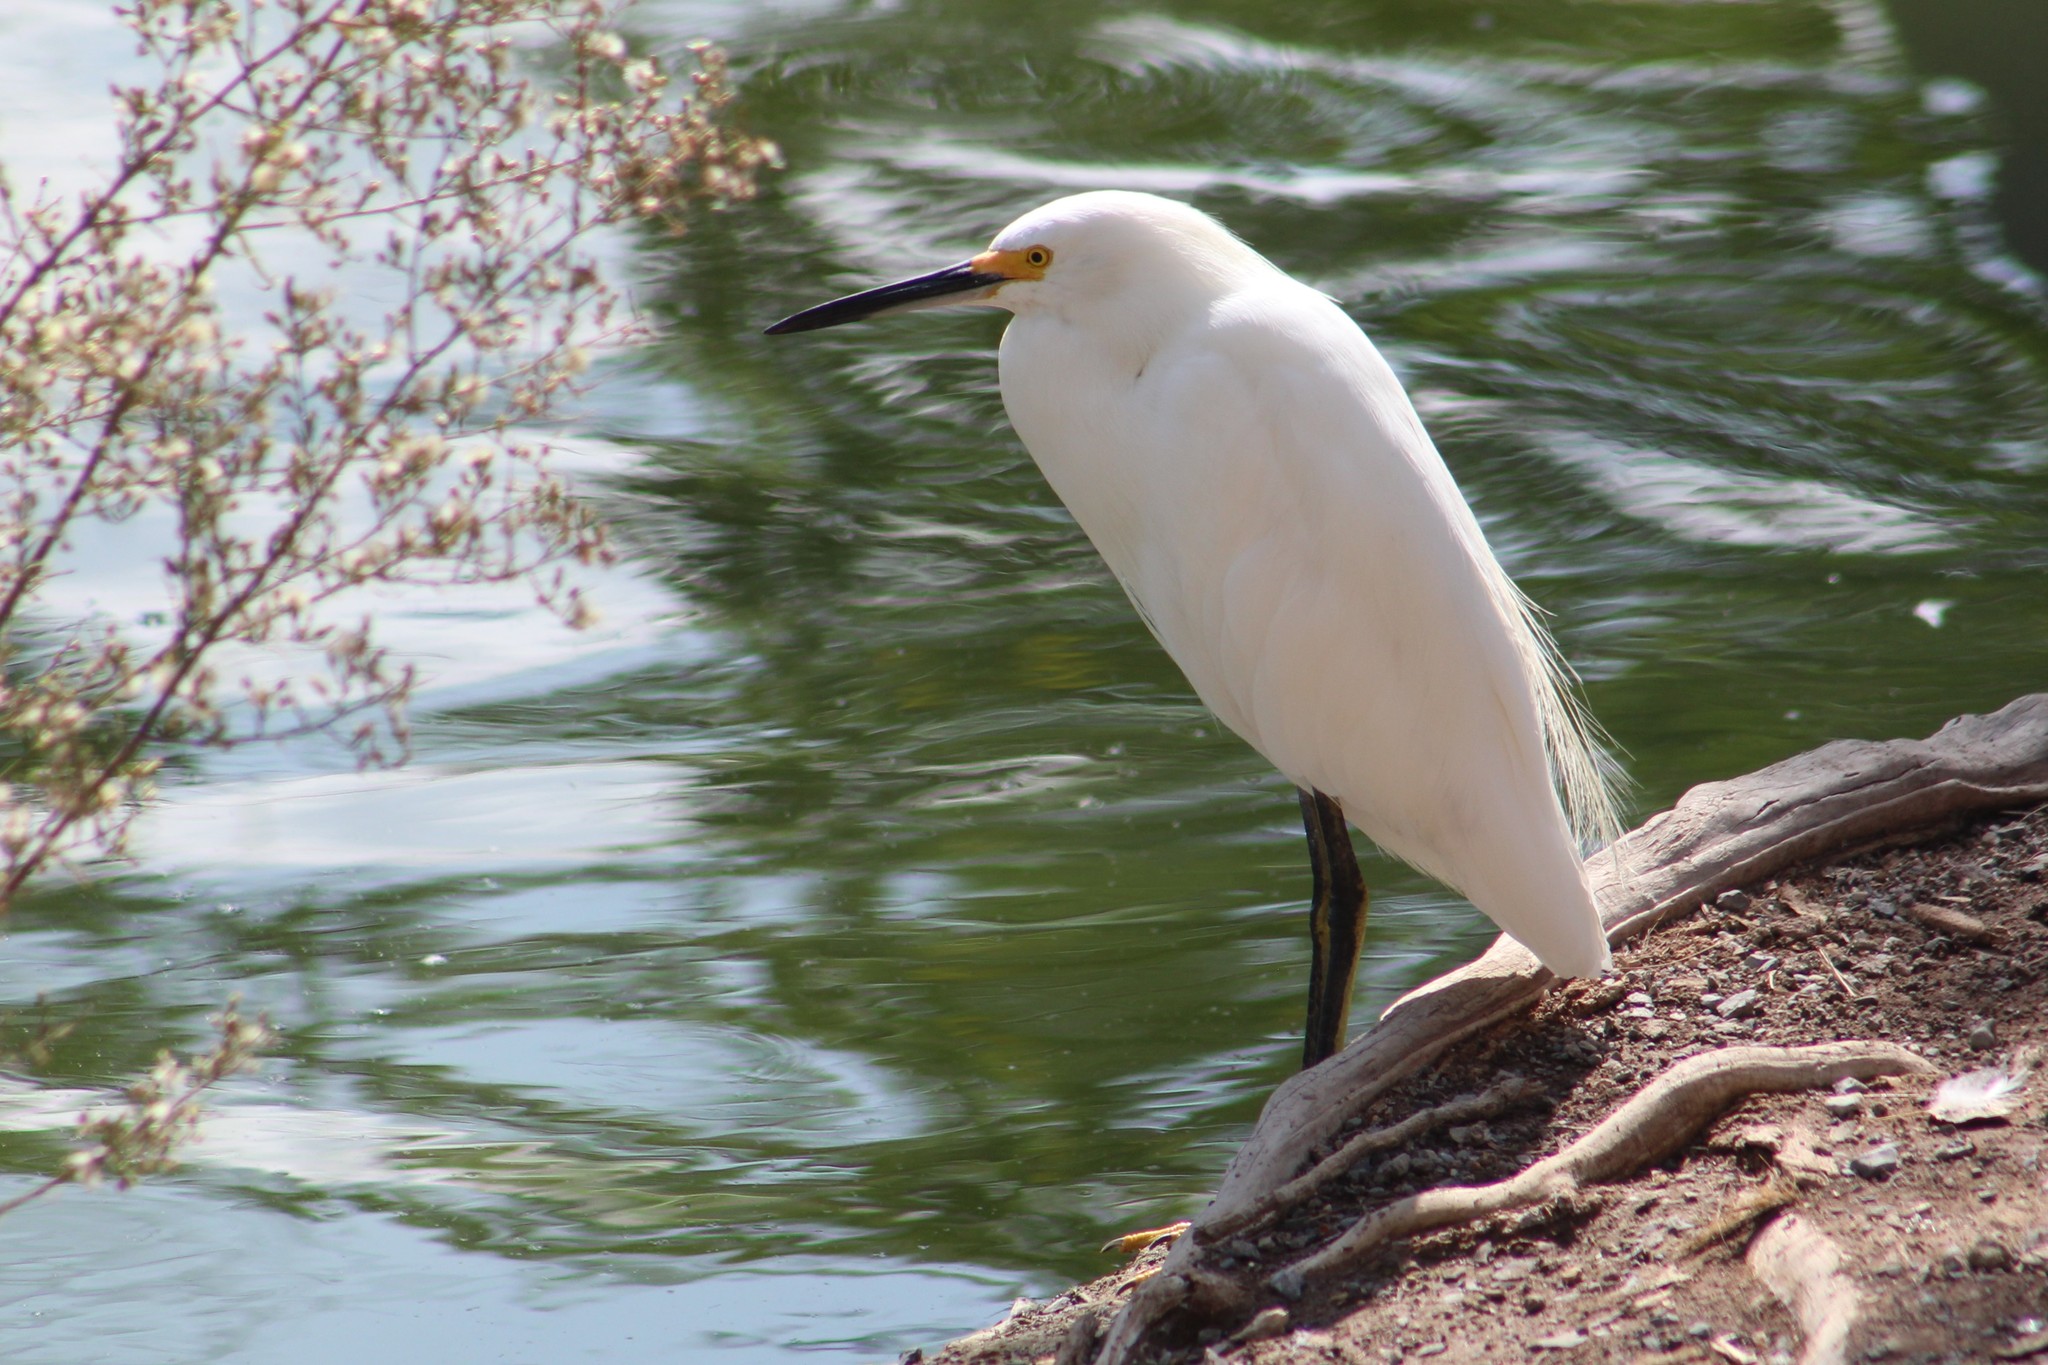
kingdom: Animalia
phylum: Chordata
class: Aves
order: Pelecaniformes
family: Ardeidae
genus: Egretta
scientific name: Egretta thula
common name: Snowy egret
